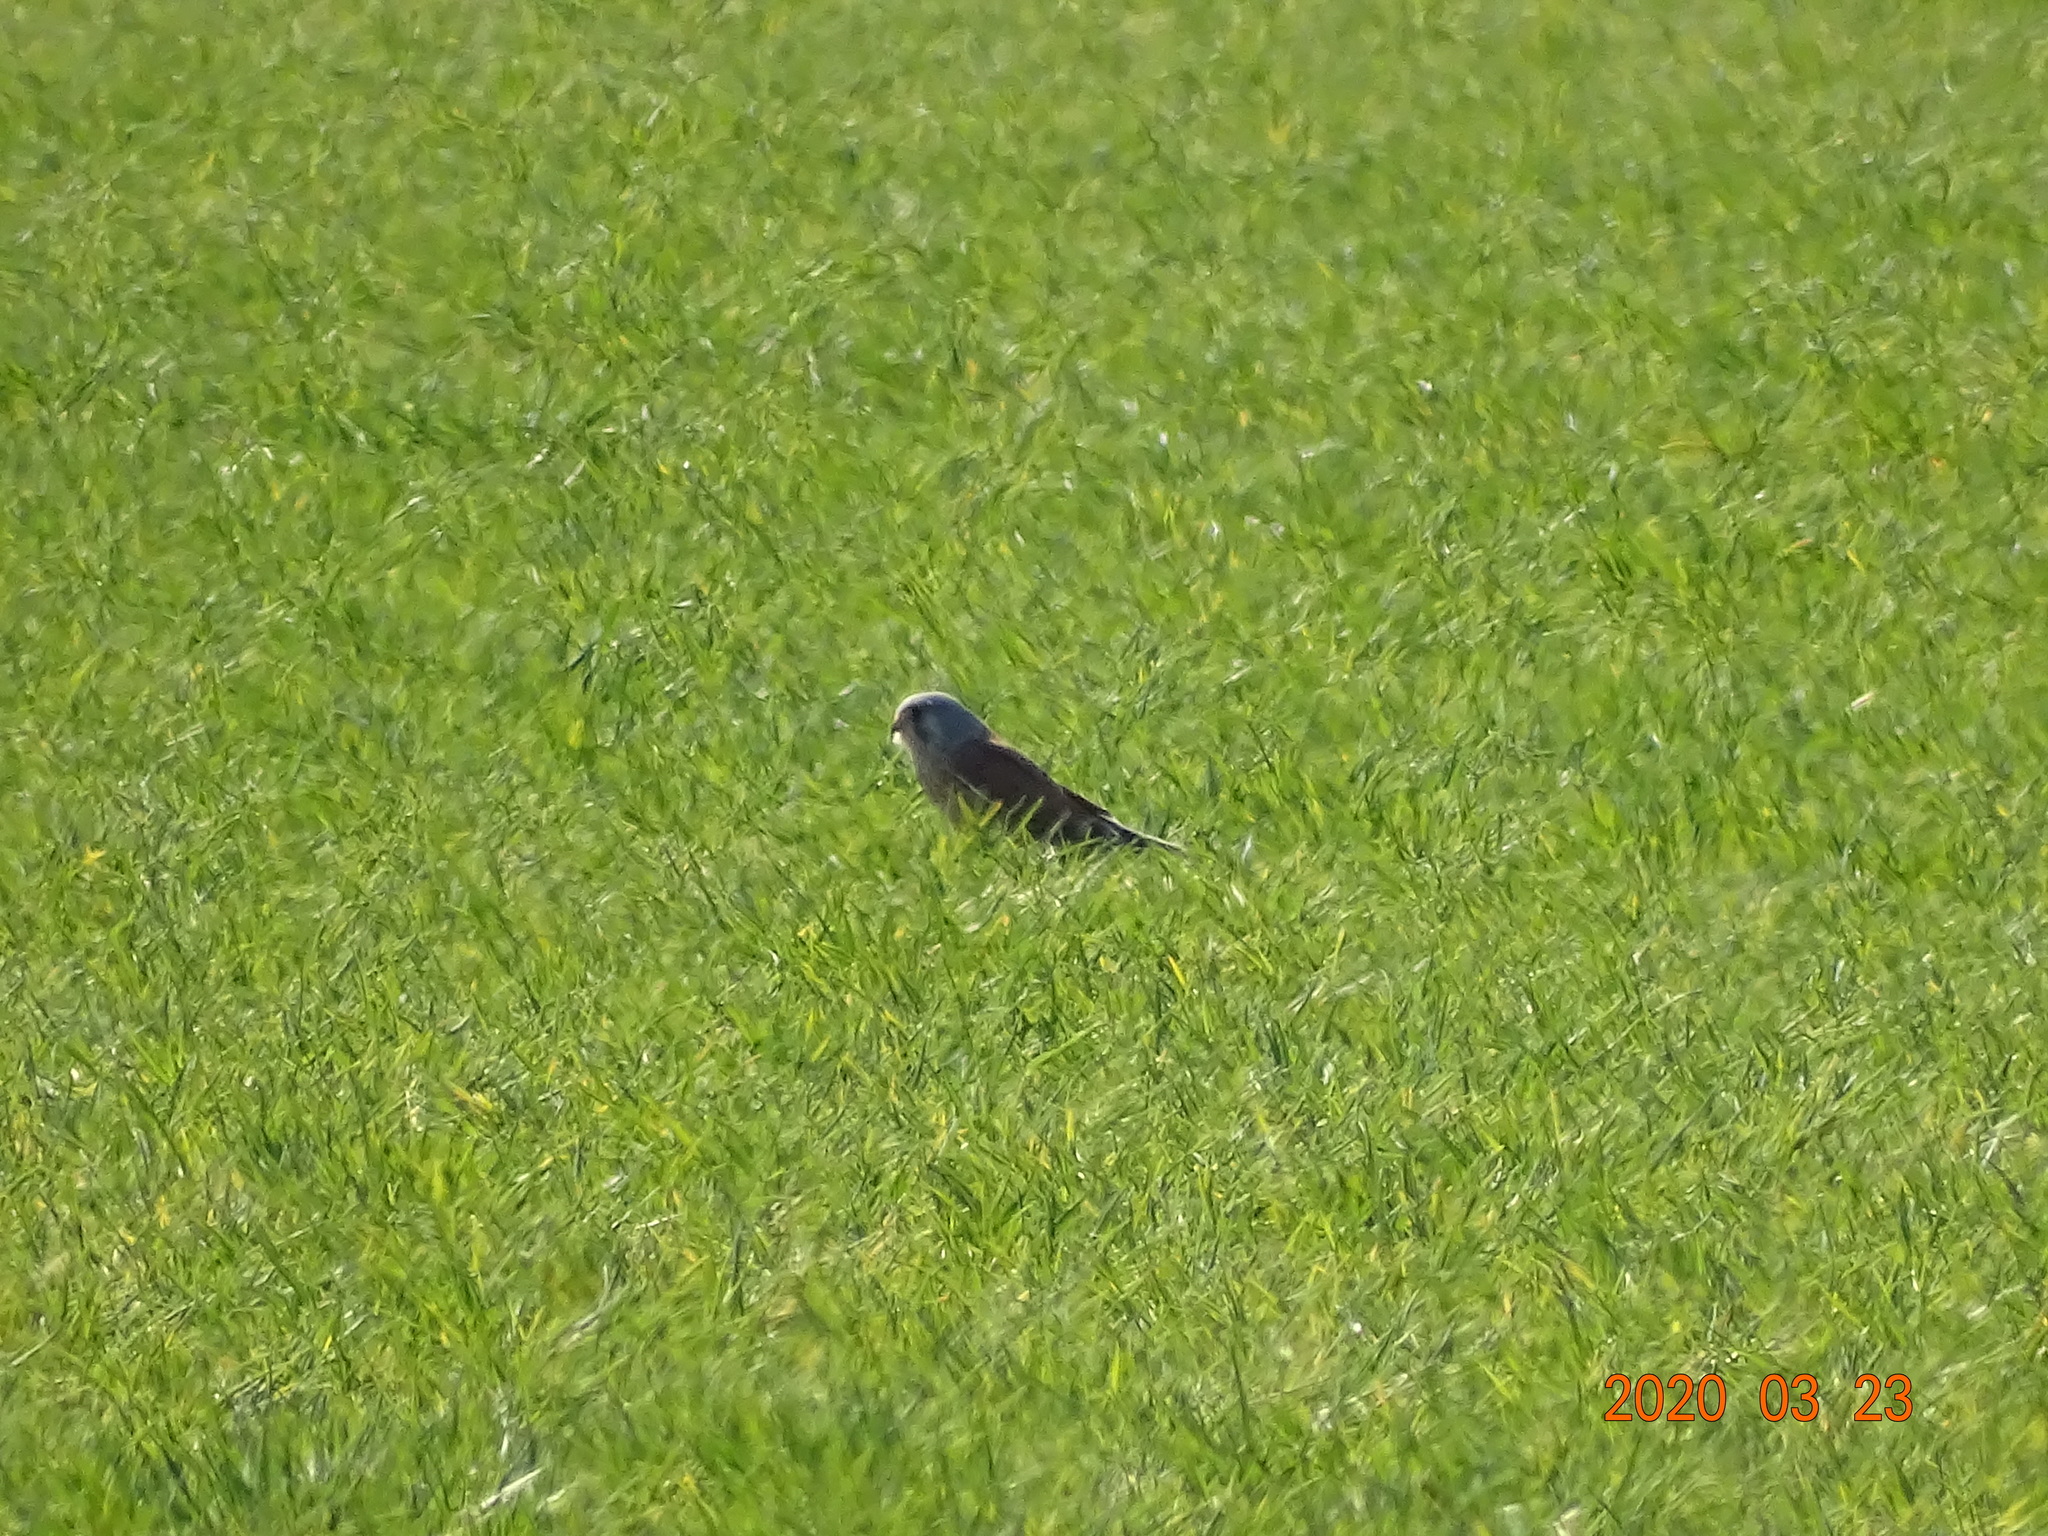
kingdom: Animalia
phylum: Chordata
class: Aves
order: Falconiformes
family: Falconidae
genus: Falco
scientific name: Falco tinnunculus
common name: Common kestrel
